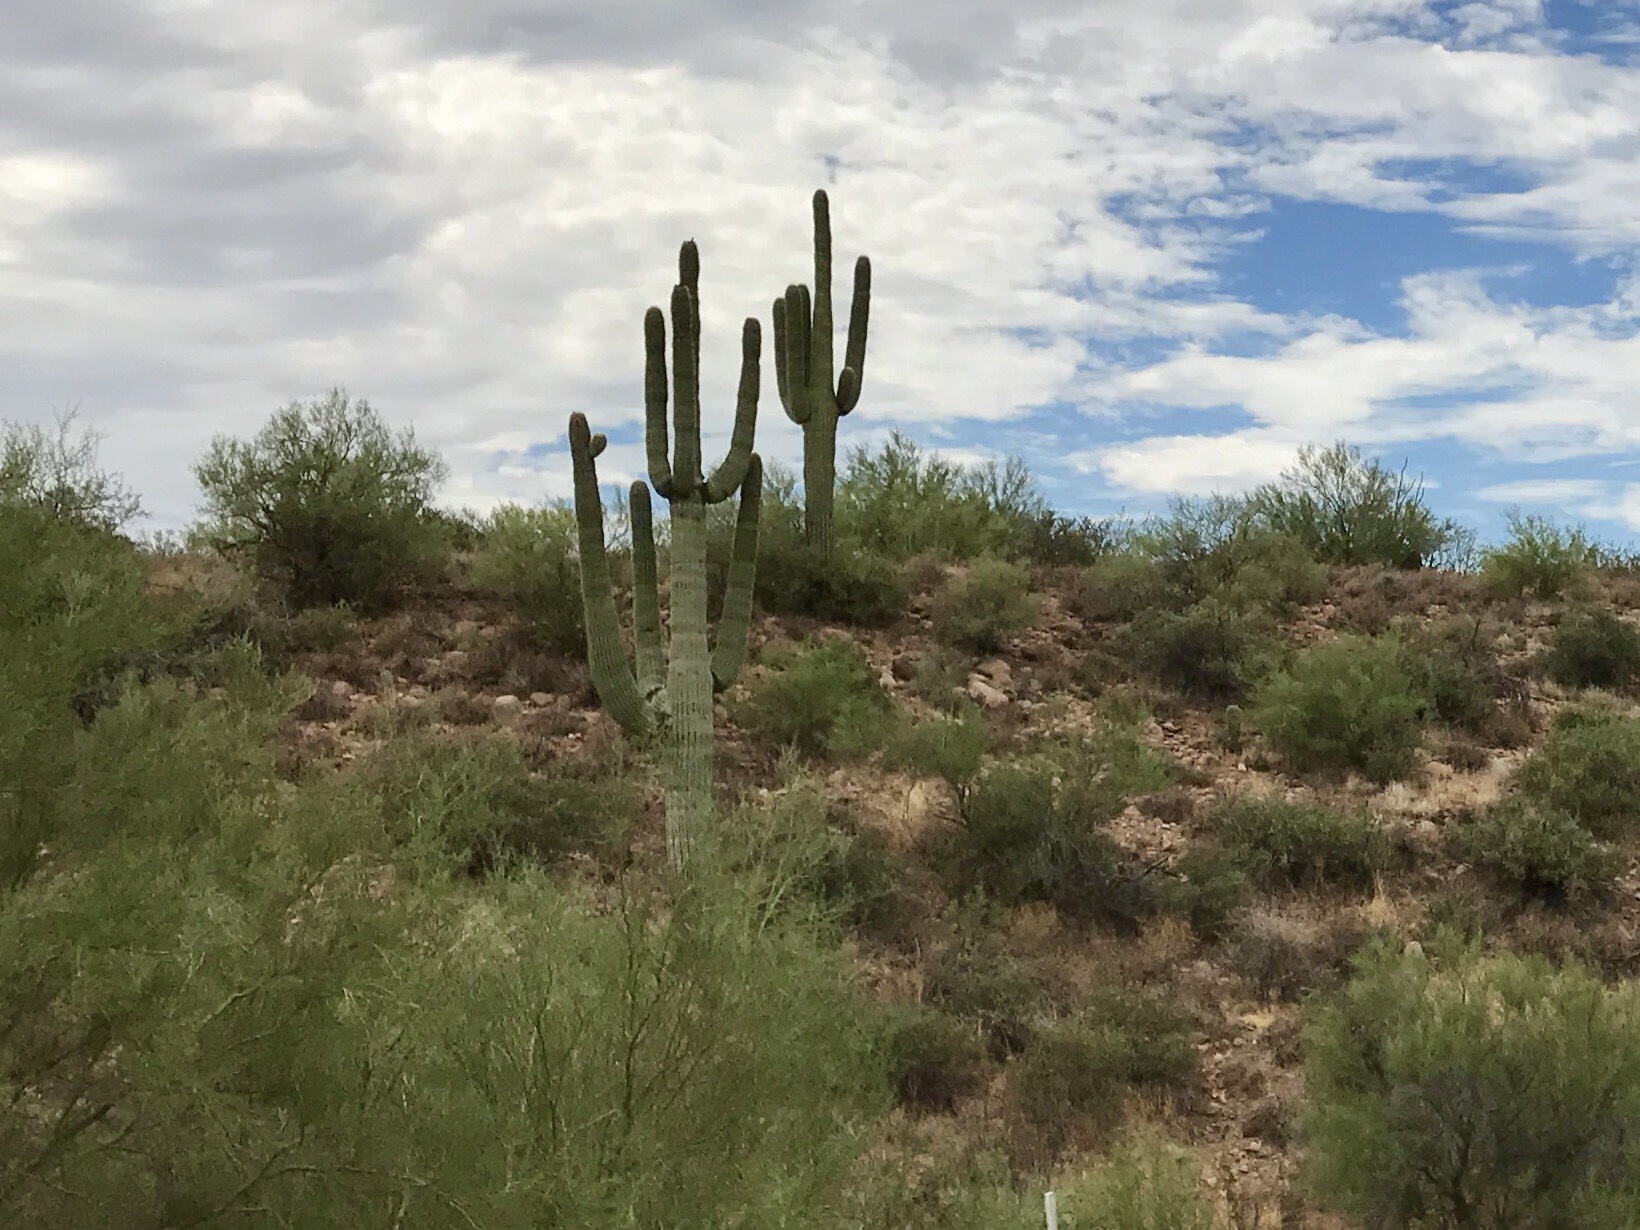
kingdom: Plantae
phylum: Tracheophyta
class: Magnoliopsida
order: Caryophyllales
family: Cactaceae
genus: Carnegiea
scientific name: Carnegiea gigantea
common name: Saguaro
